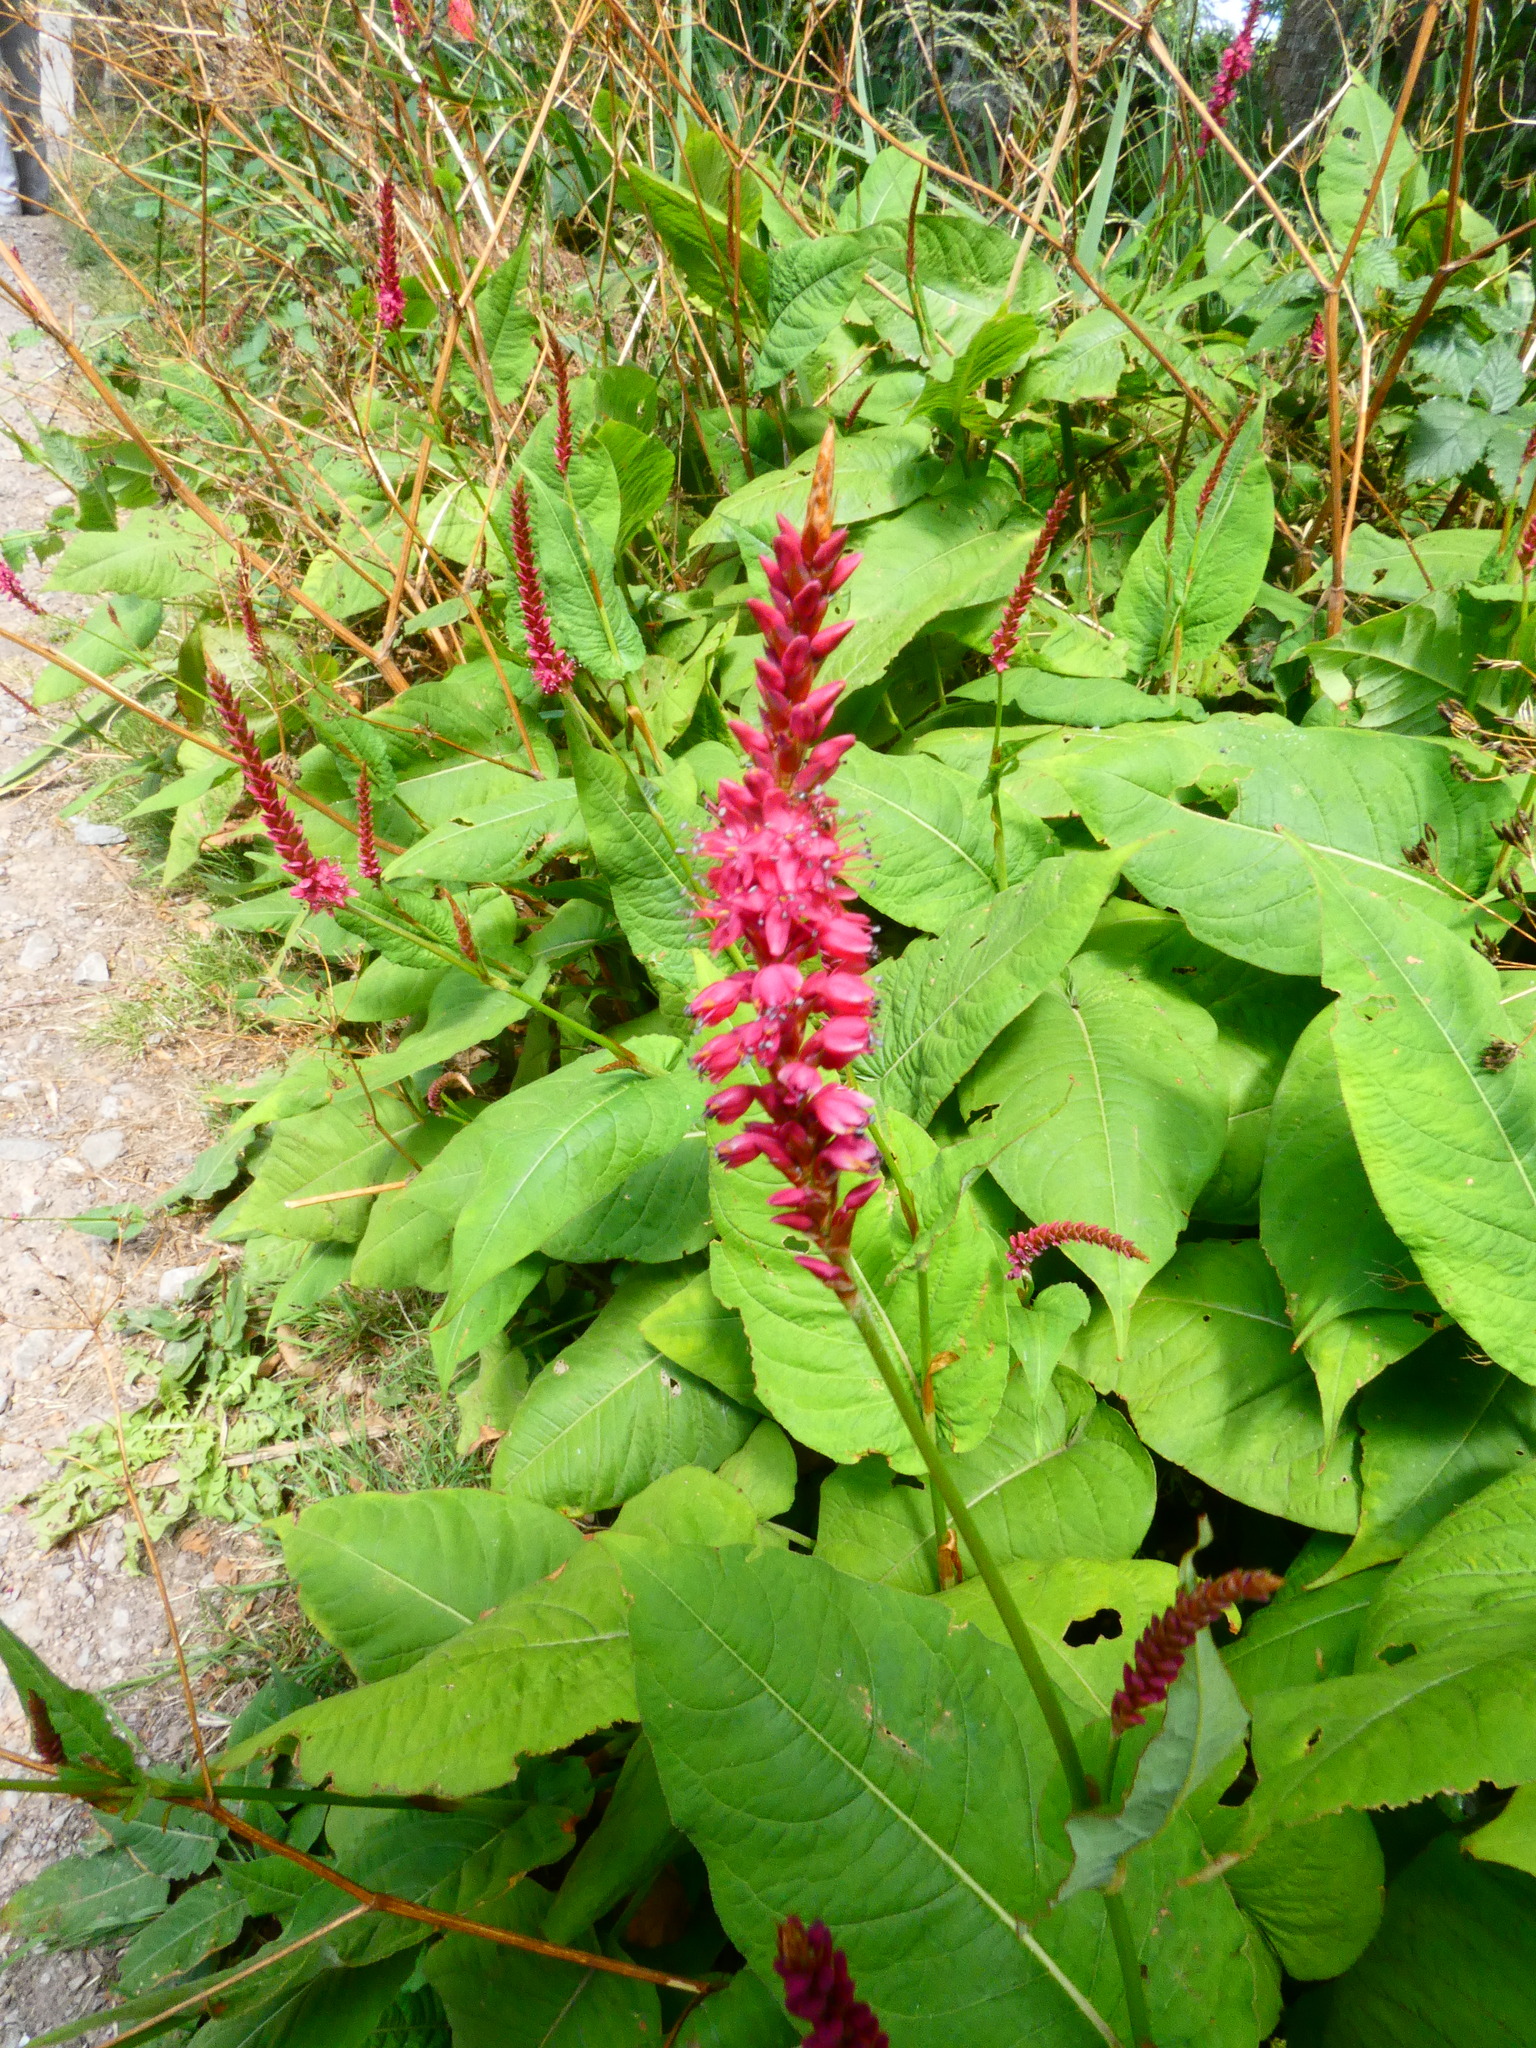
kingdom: Plantae
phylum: Tracheophyta
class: Magnoliopsida
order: Caryophyllales
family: Polygonaceae
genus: Bistorta
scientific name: Bistorta amplexicaulis
